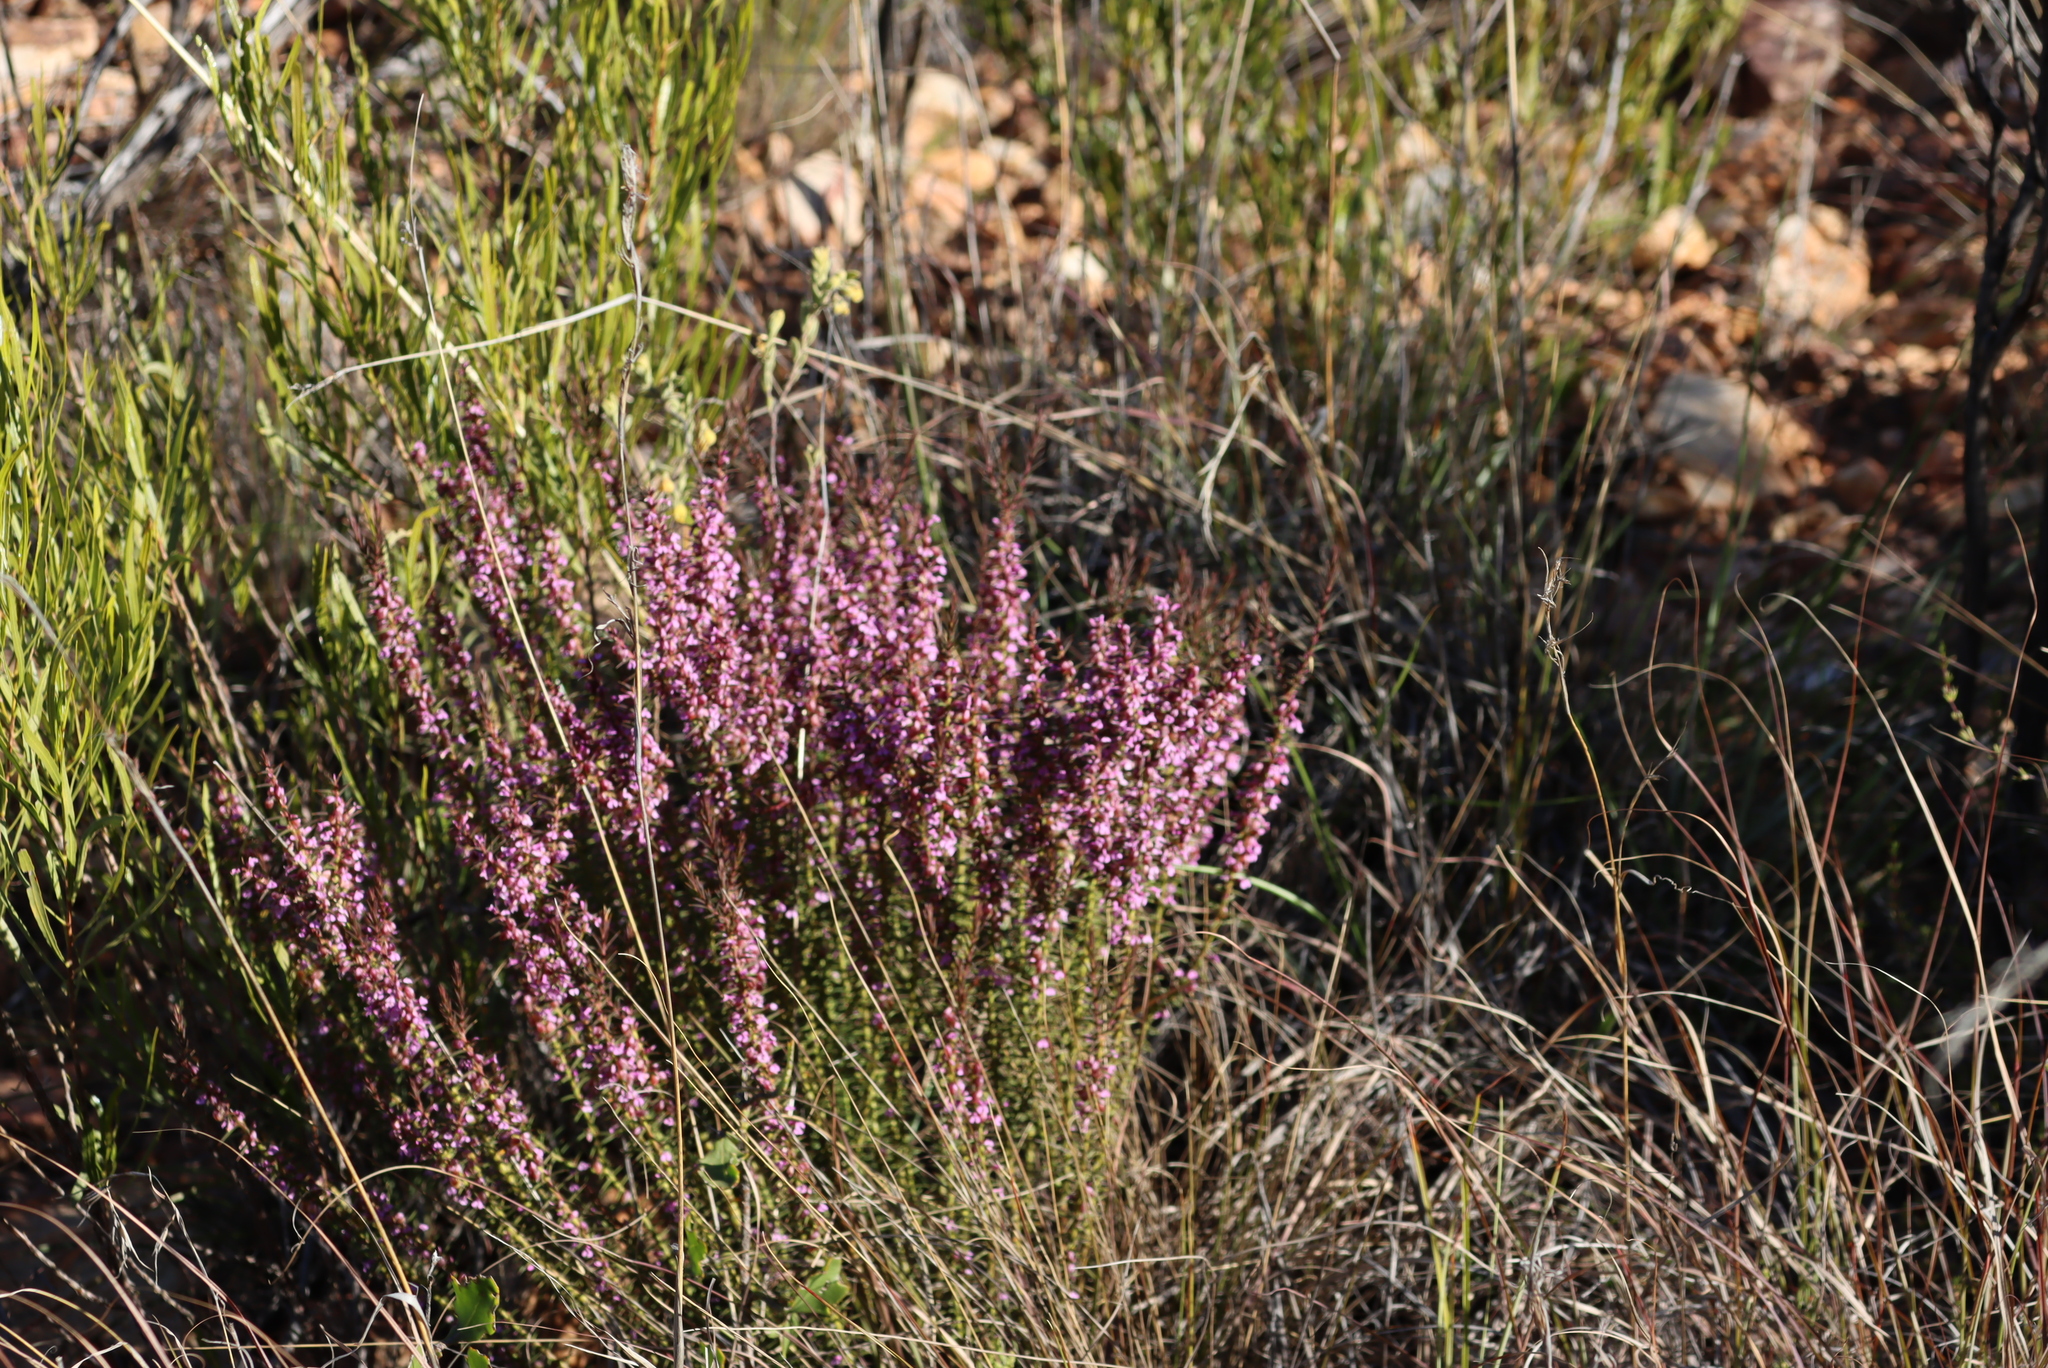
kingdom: Plantae
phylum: Tracheophyta
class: Magnoliopsida
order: Fabales
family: Polygalaceae
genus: Muraltia
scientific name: Muraltia juniperifolia
